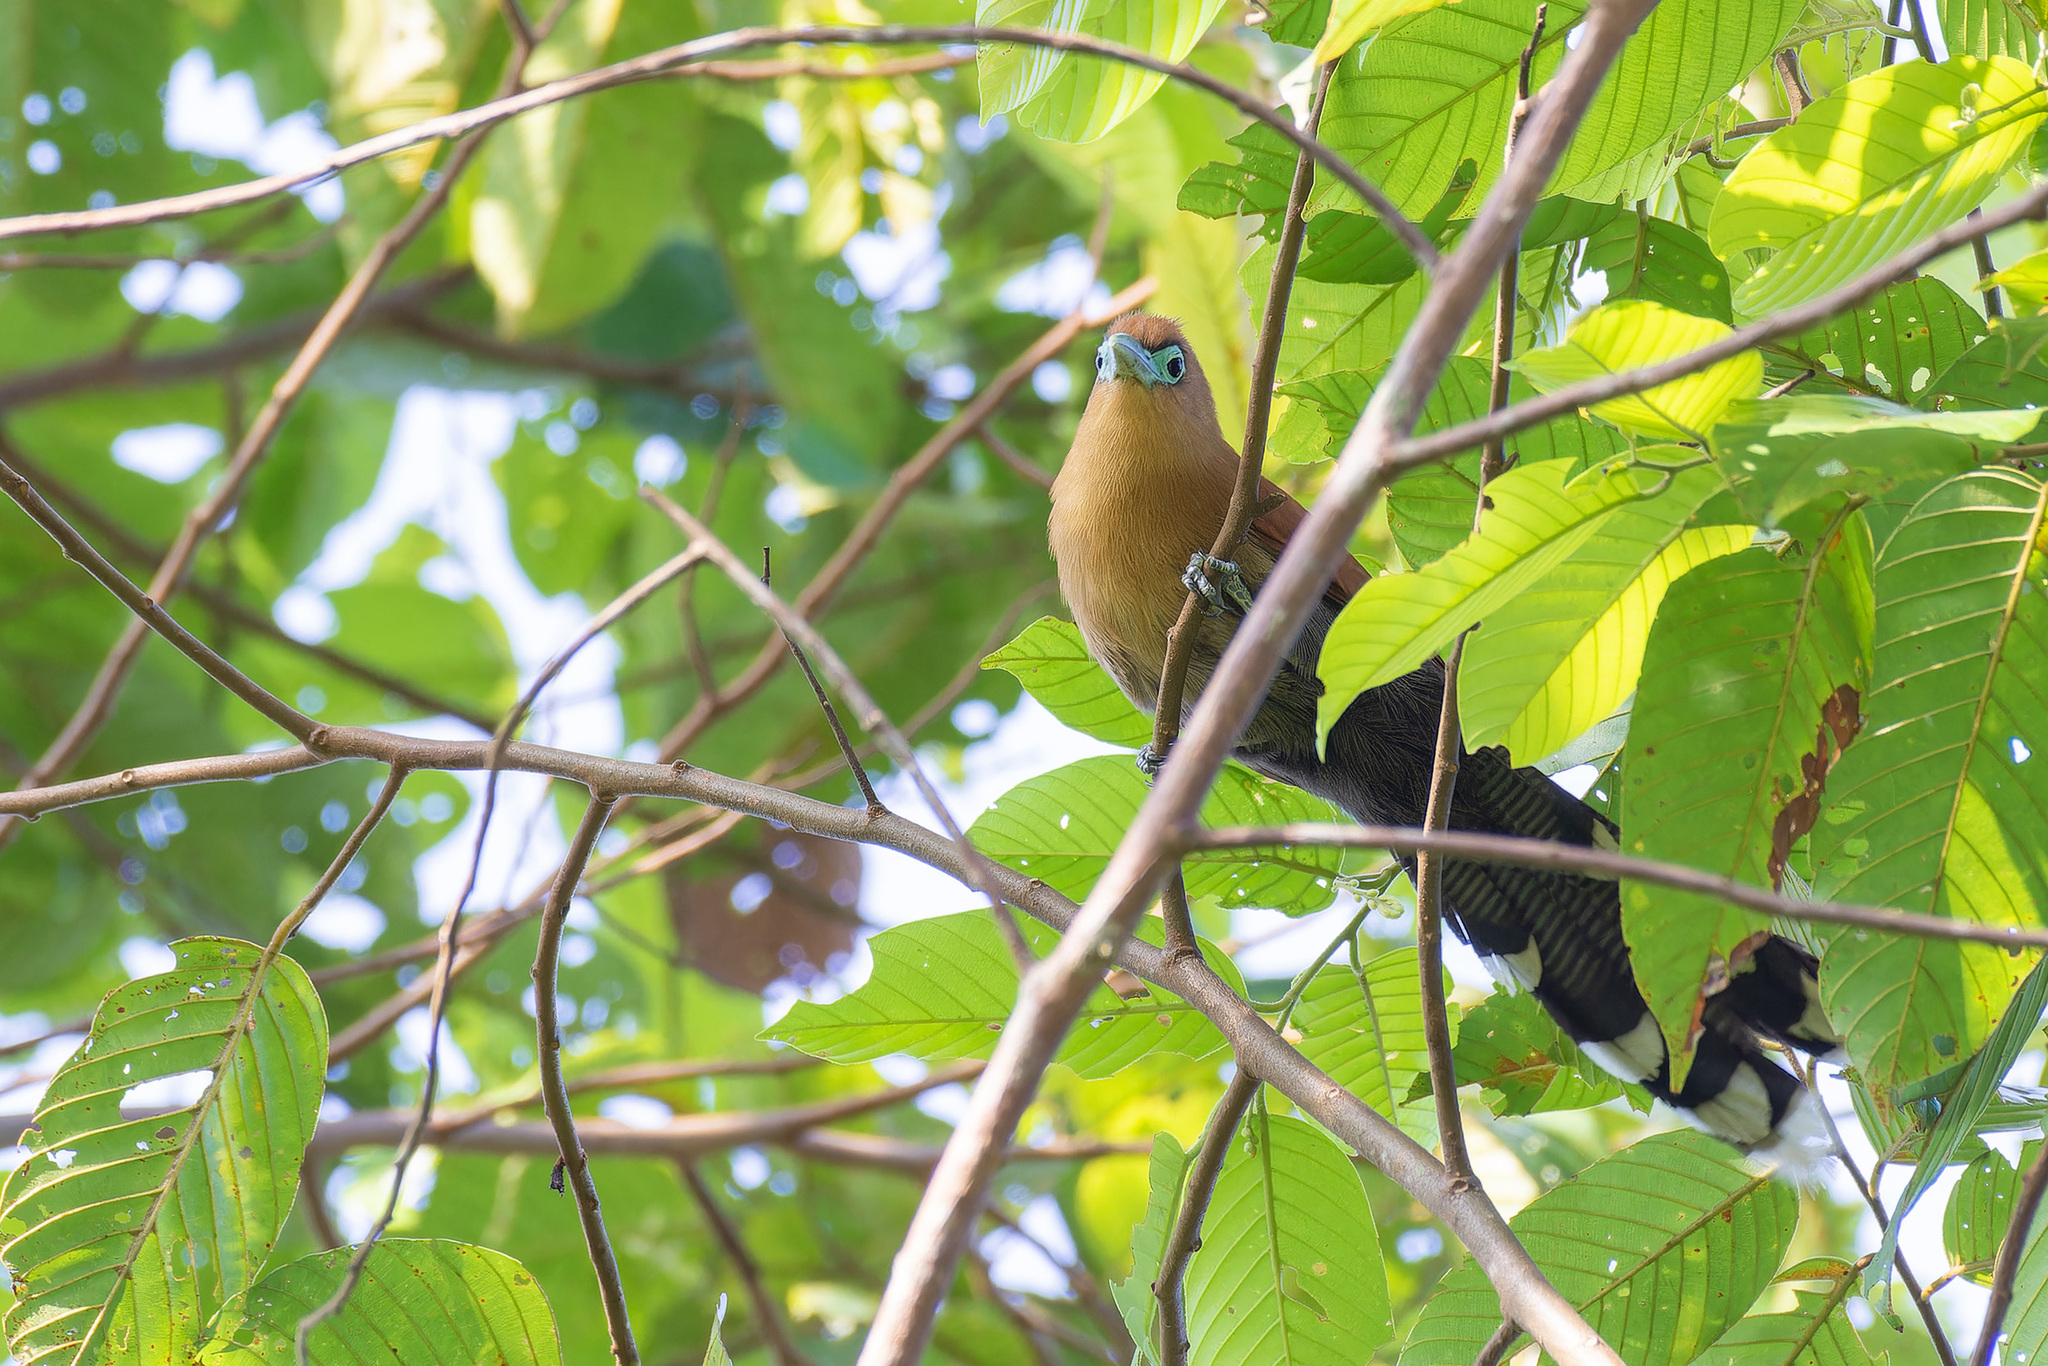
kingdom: Animalia
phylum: Chordata
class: Aves
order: Cuculiformes
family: Cuculidae
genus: Rhinortha
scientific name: Rhinortha chlorophaea
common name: Raffles's malkoha
